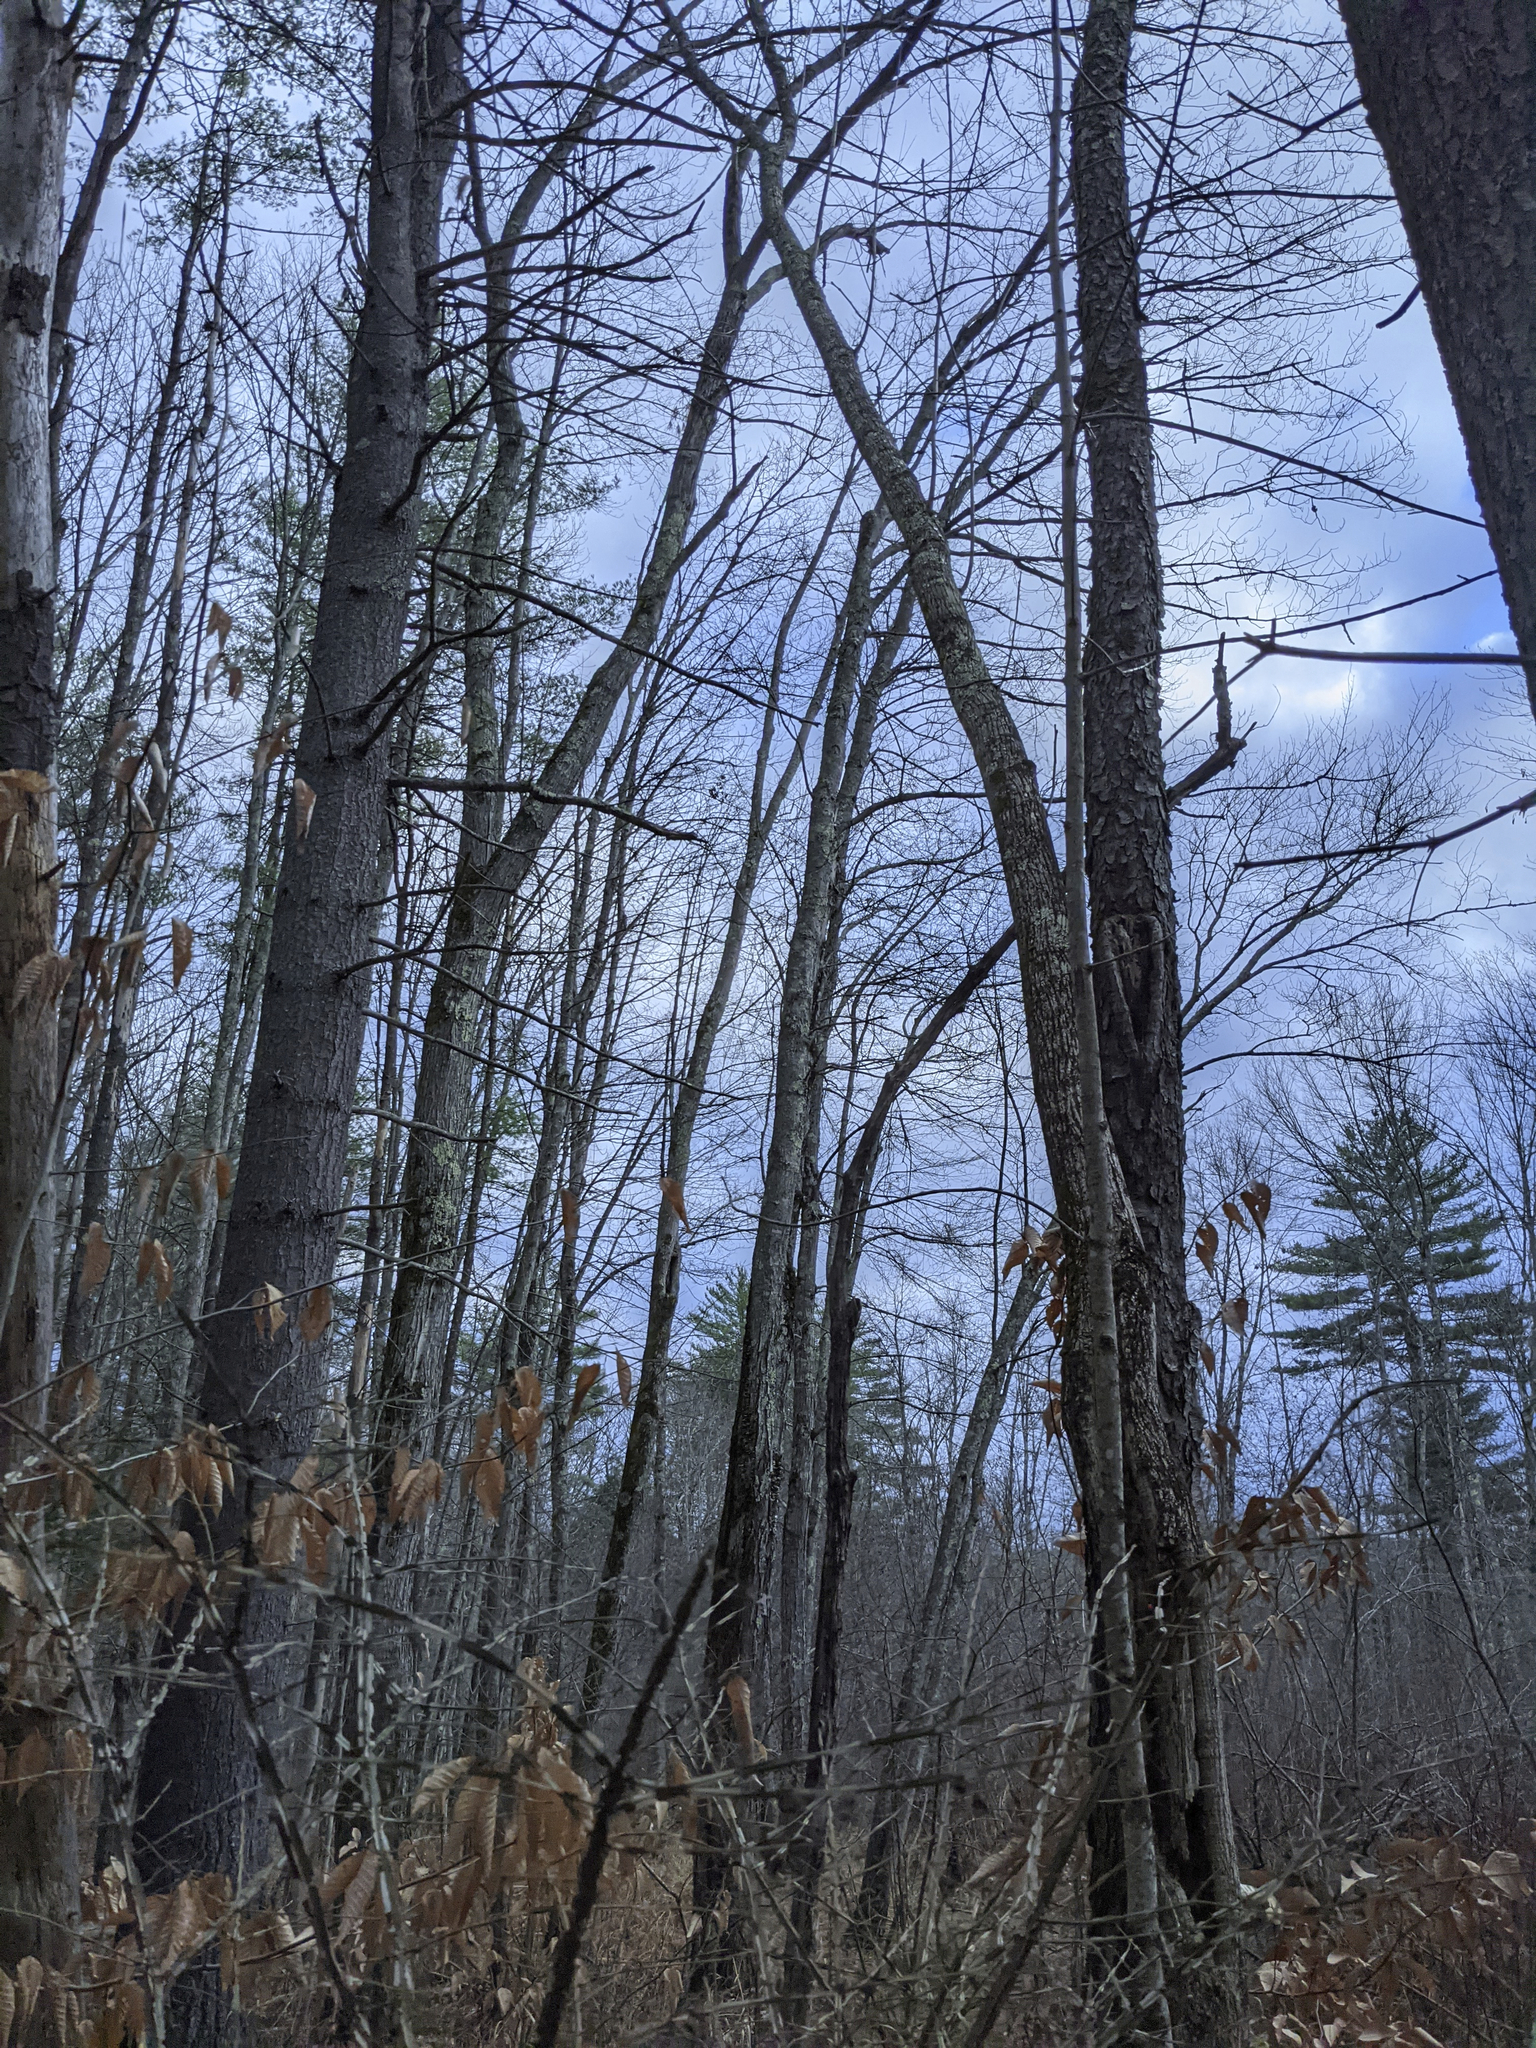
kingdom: Plantae
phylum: Tracheophyta
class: Magnoliopsida
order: Celastrales
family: Celastraceae
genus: Euonymus
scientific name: Euonymus alatus
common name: Winged euonymus
